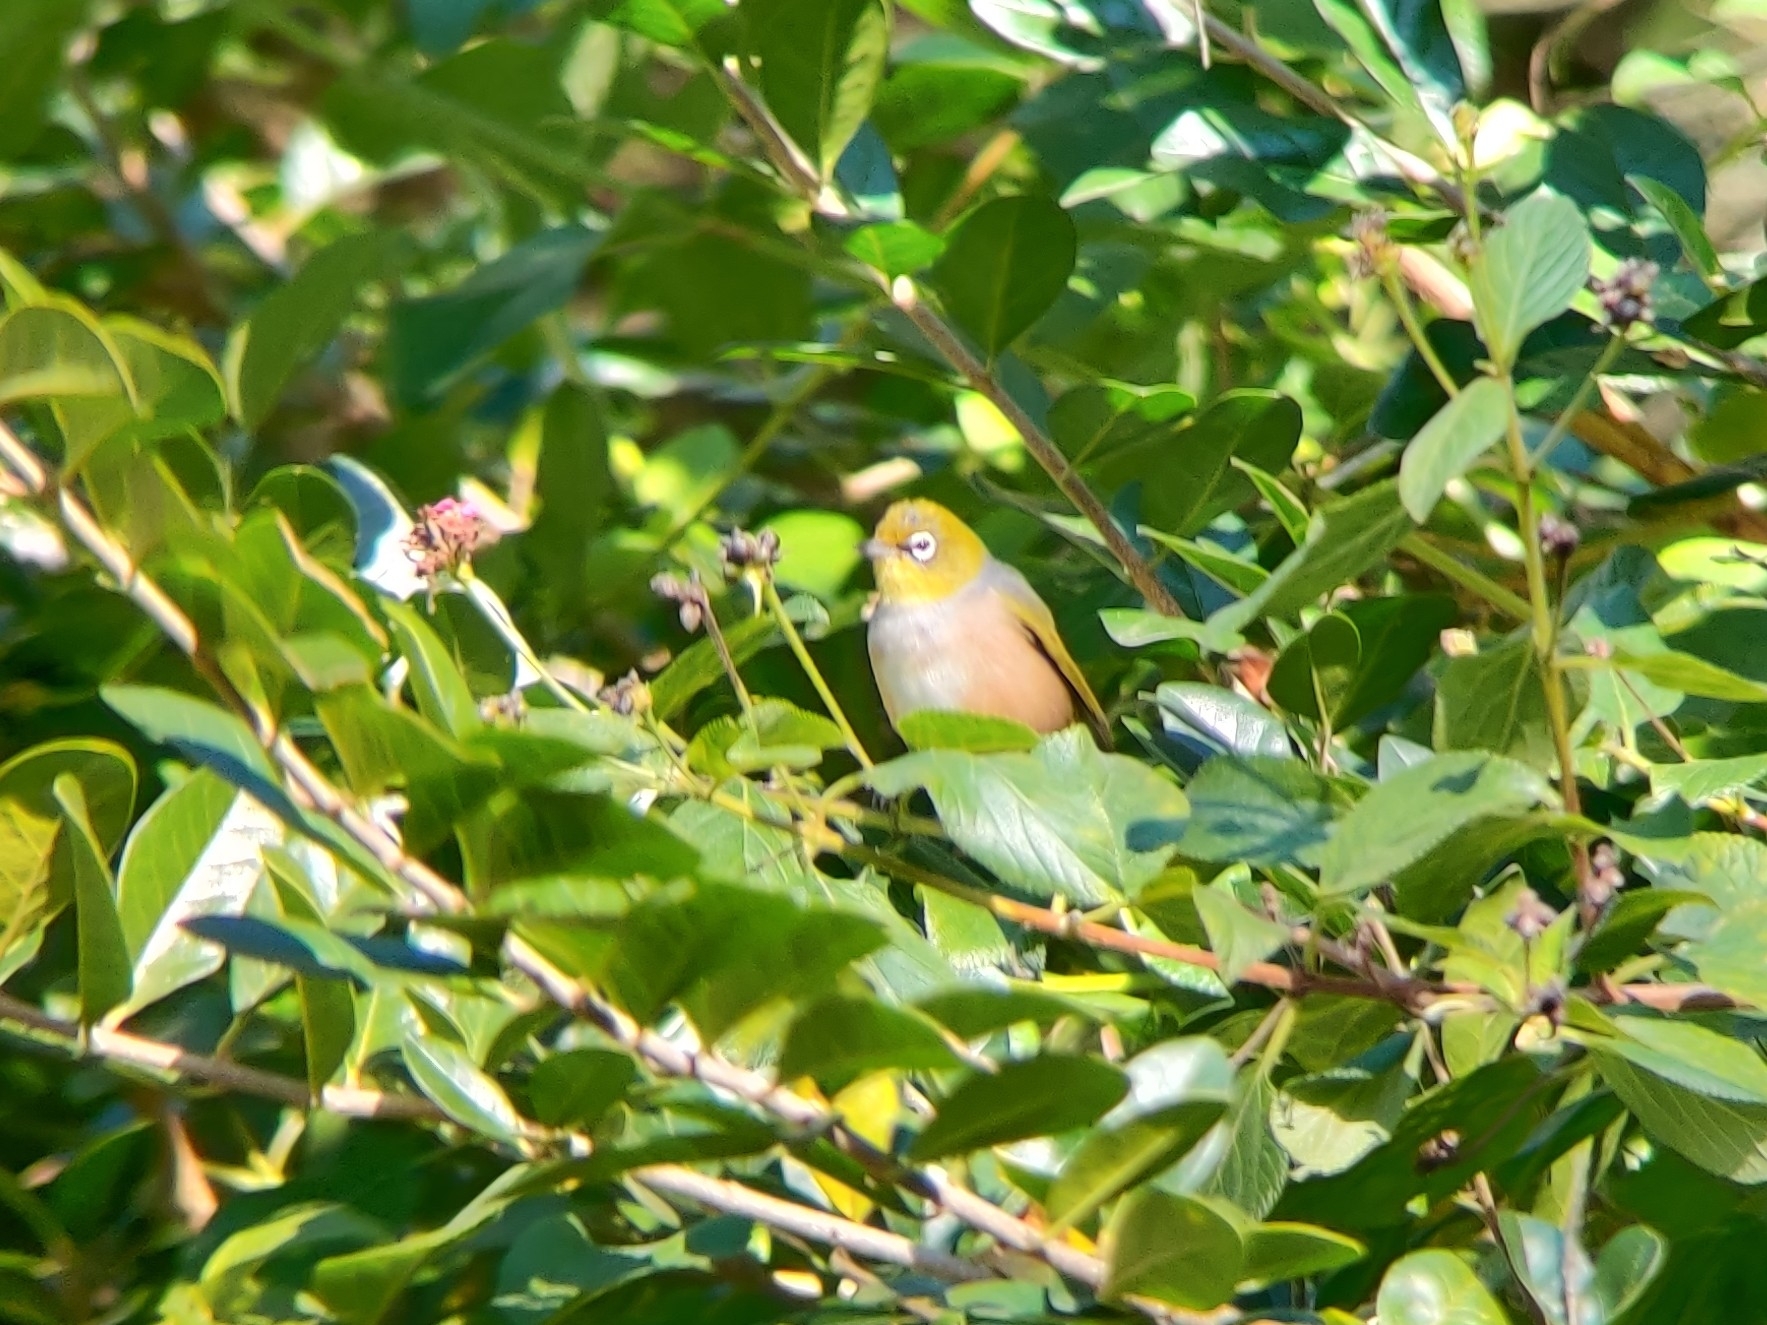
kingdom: Animalia
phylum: Chordata
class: Aves
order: Passeriformes
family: Zosteropidae
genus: Zosterops
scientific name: Zosterops lateralis
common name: Silvereye
